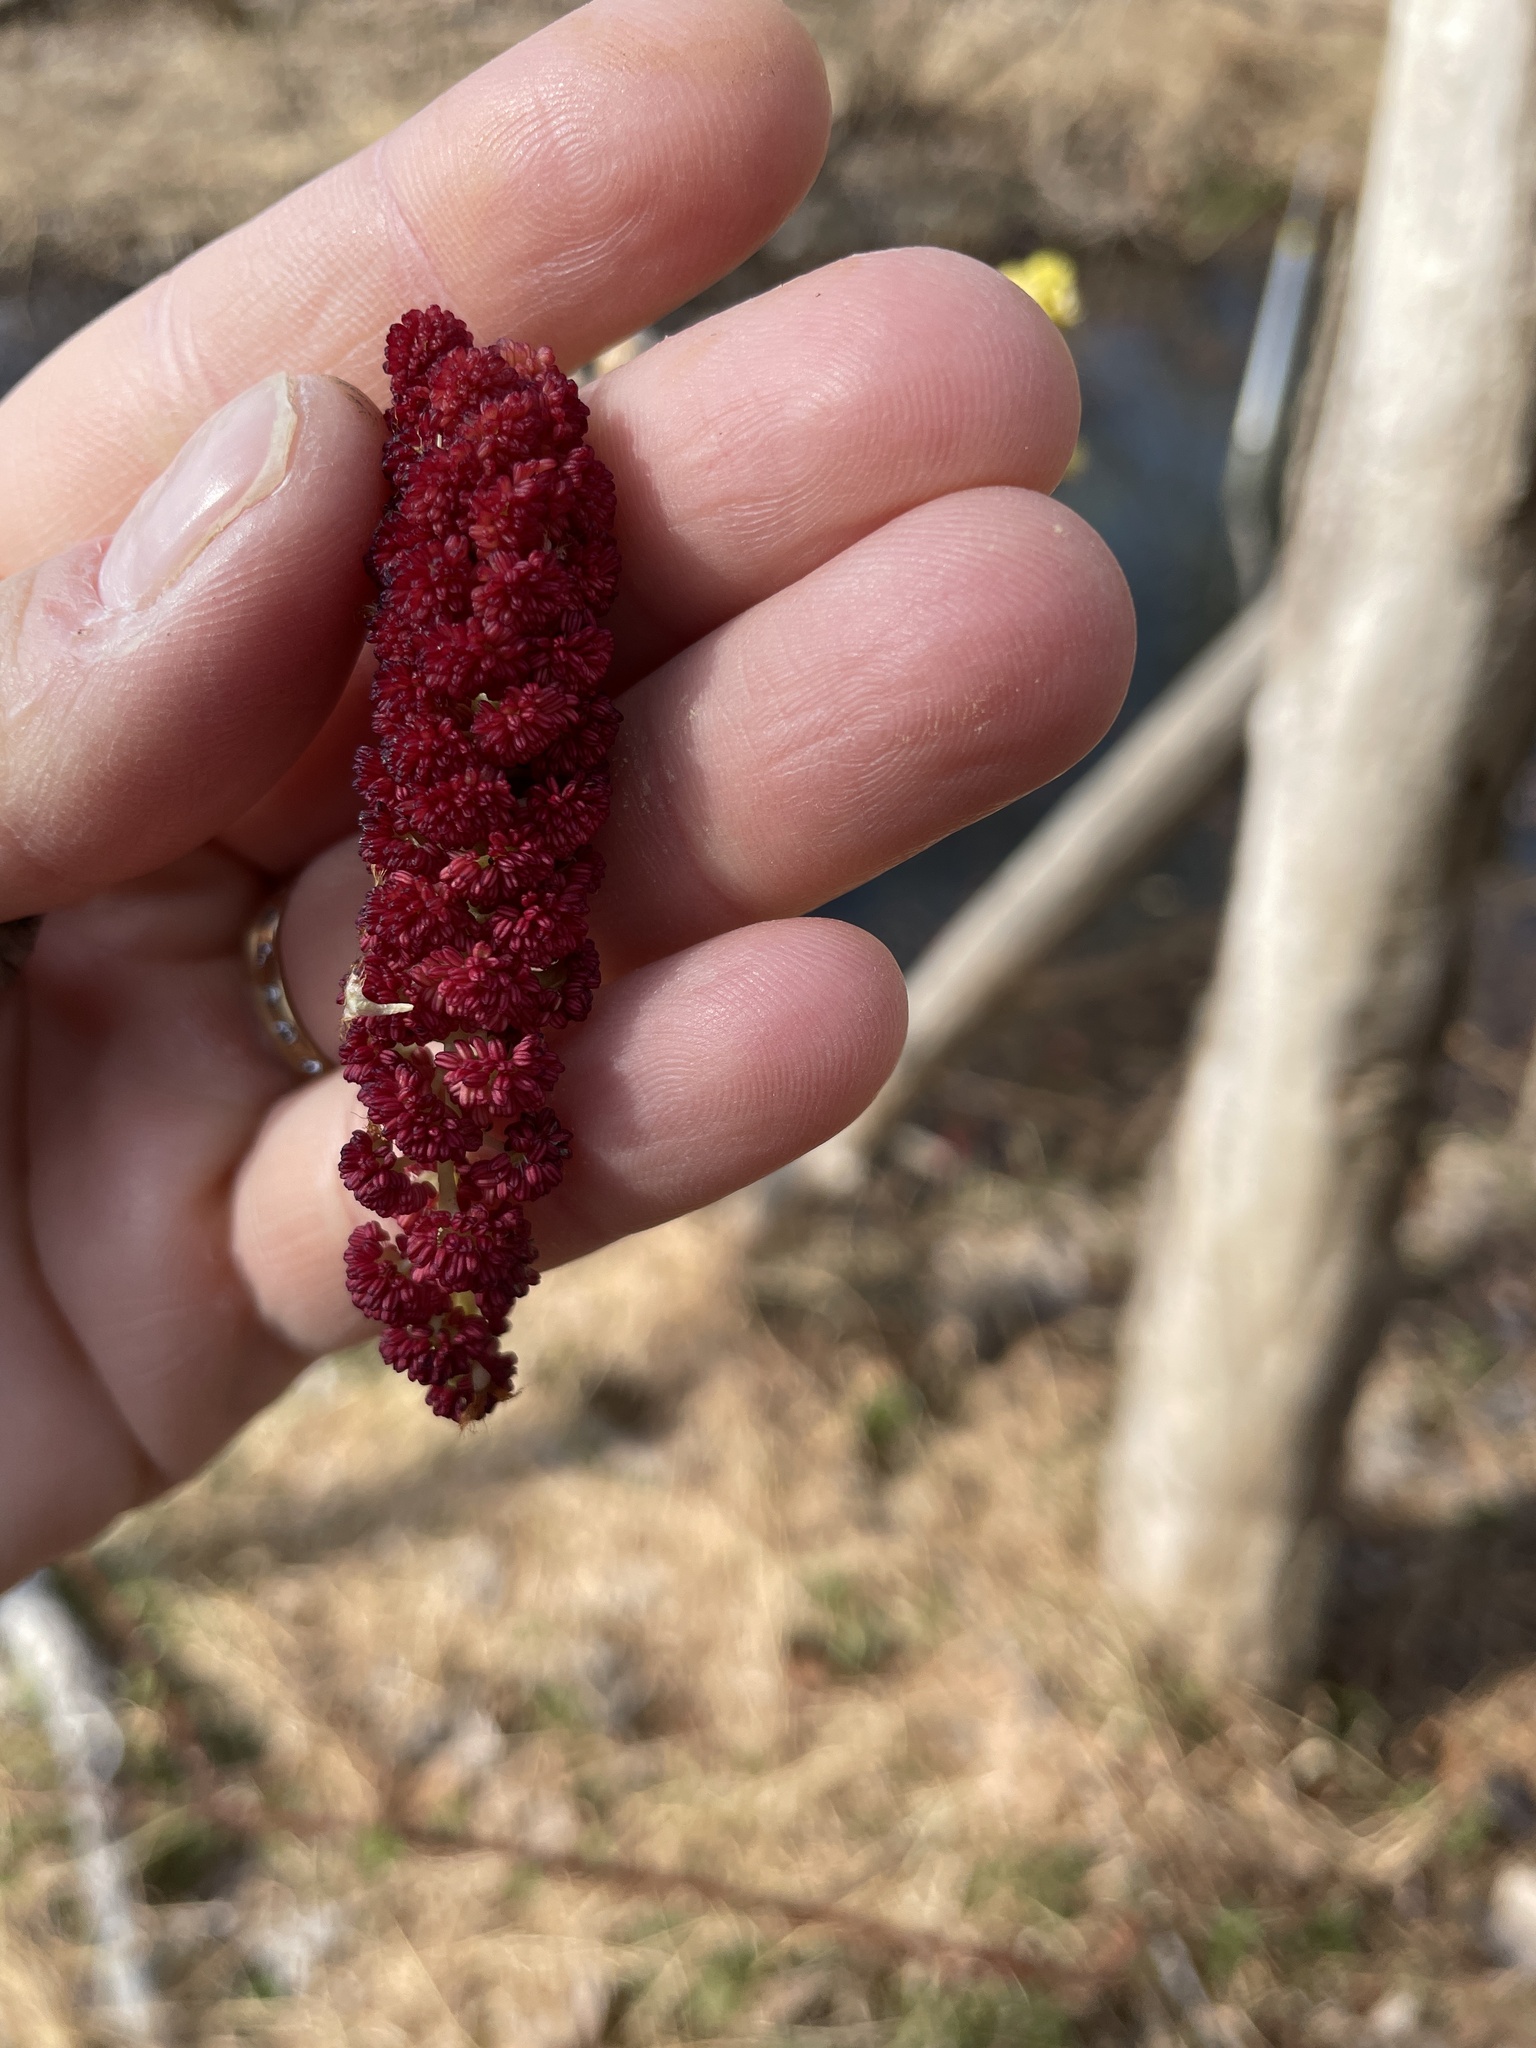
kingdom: Plantae
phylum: Tracheophyta
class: Magnoliopsida
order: Malpighiales
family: Salicaceae
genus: Populus
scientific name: Populus deltoides
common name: Eastern cottonwood
